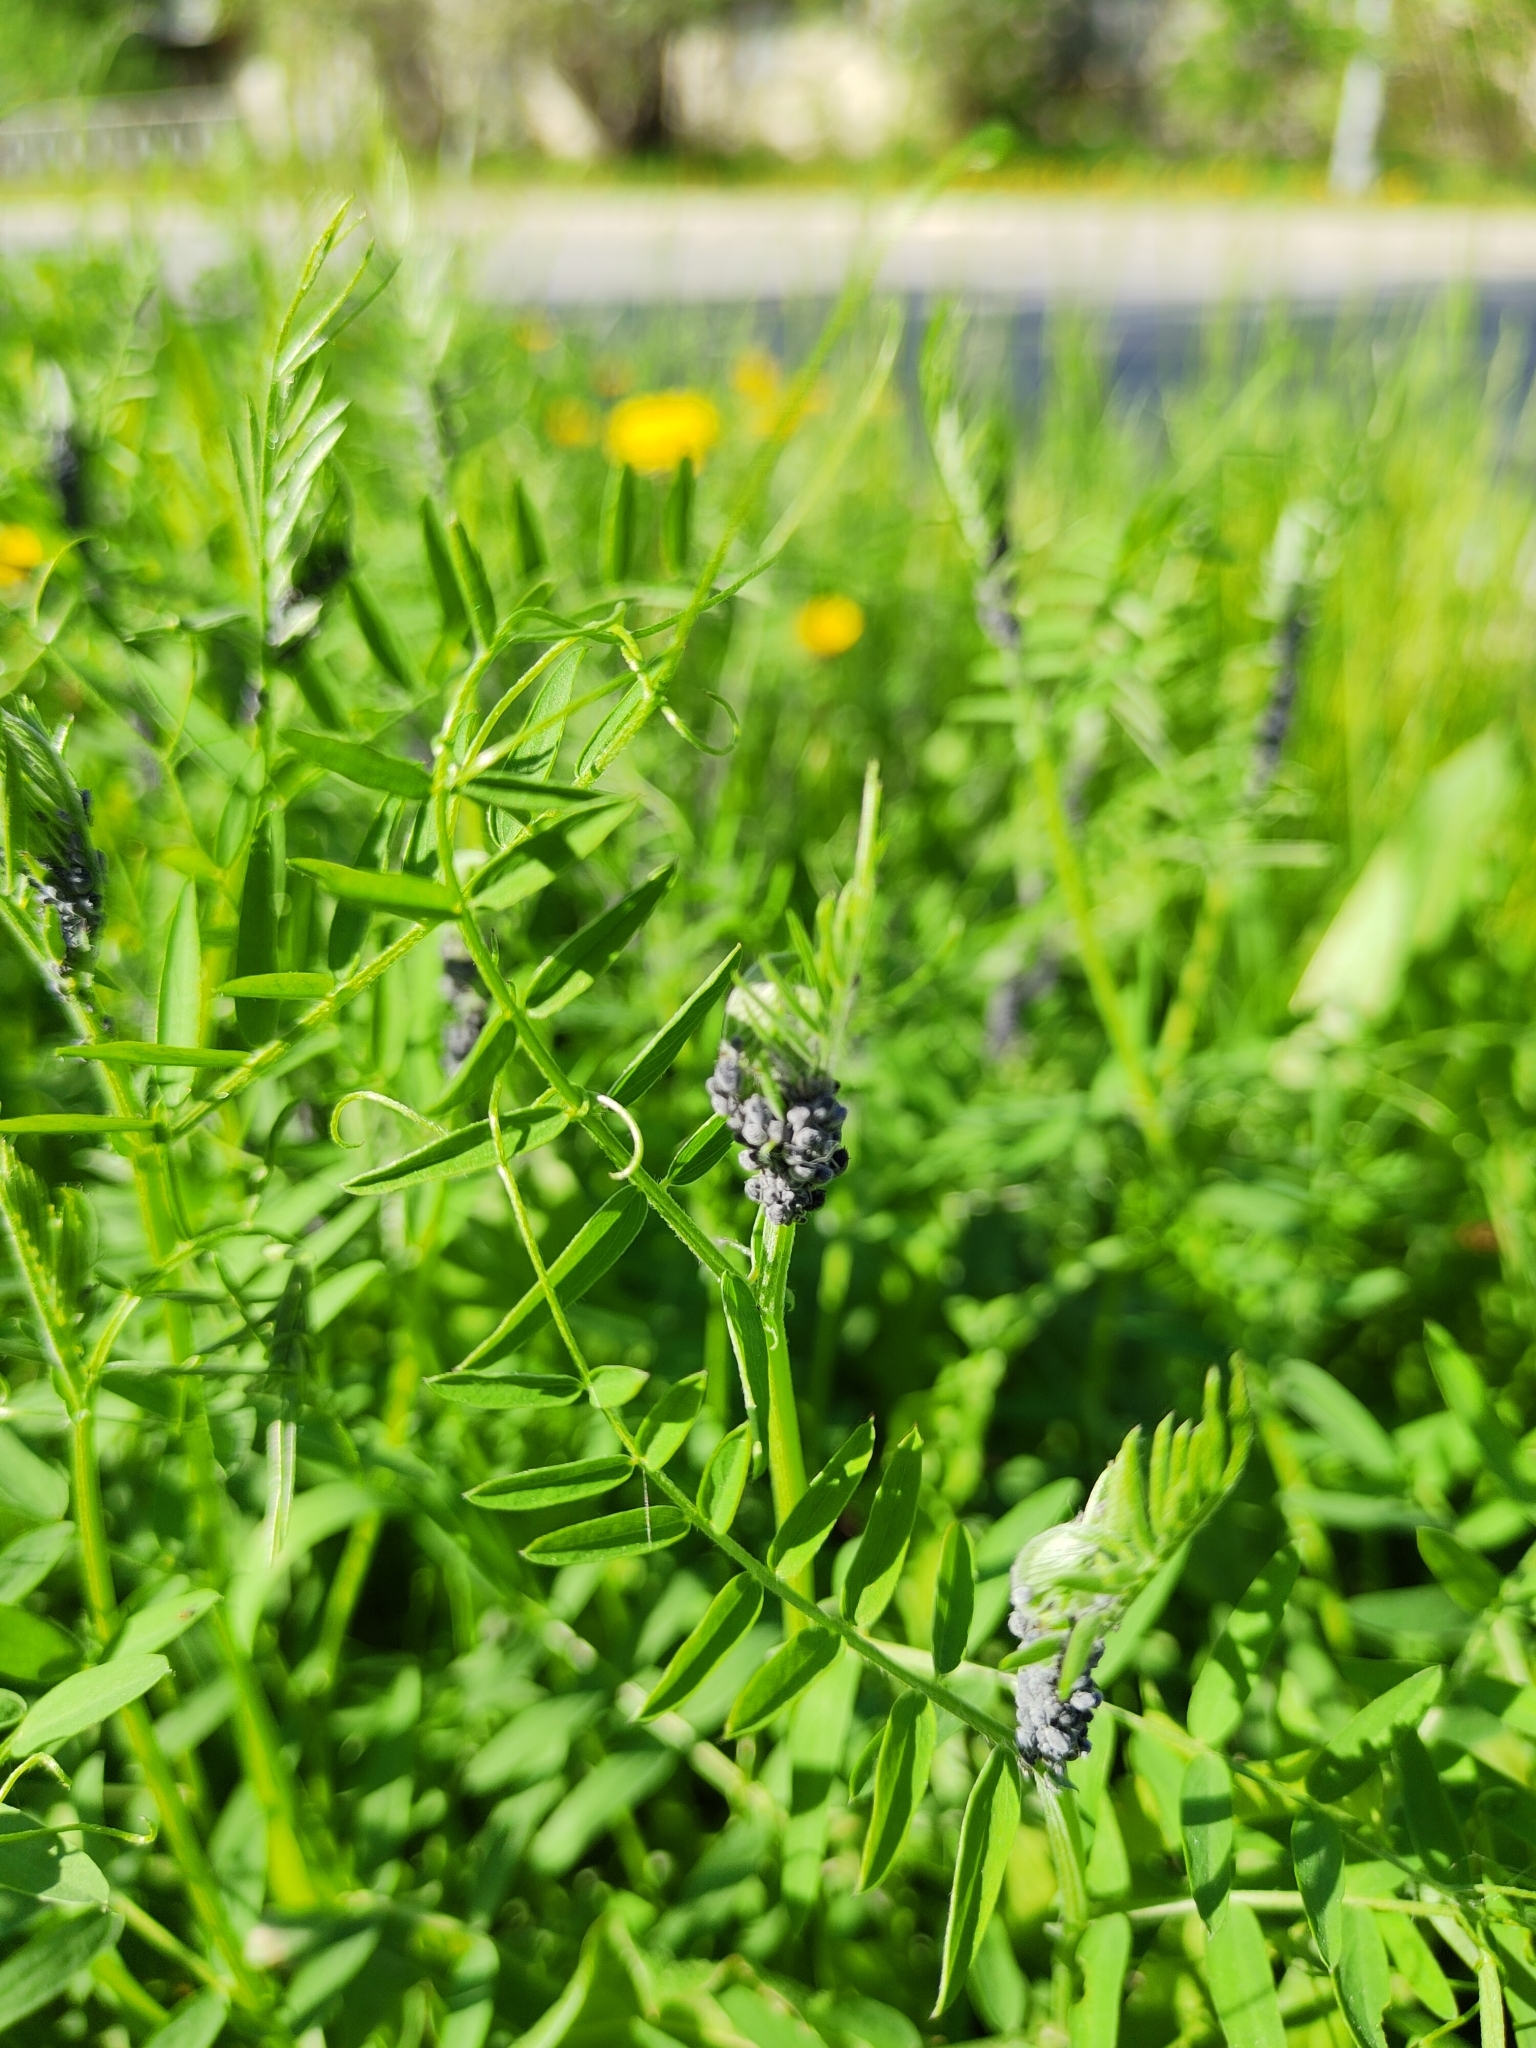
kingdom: Plantae
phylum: Tracheophyta
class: Magnoliopsida
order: Fabales
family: Fabaceae
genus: Vicia
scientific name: Vicia cracca
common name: Bird vetch
